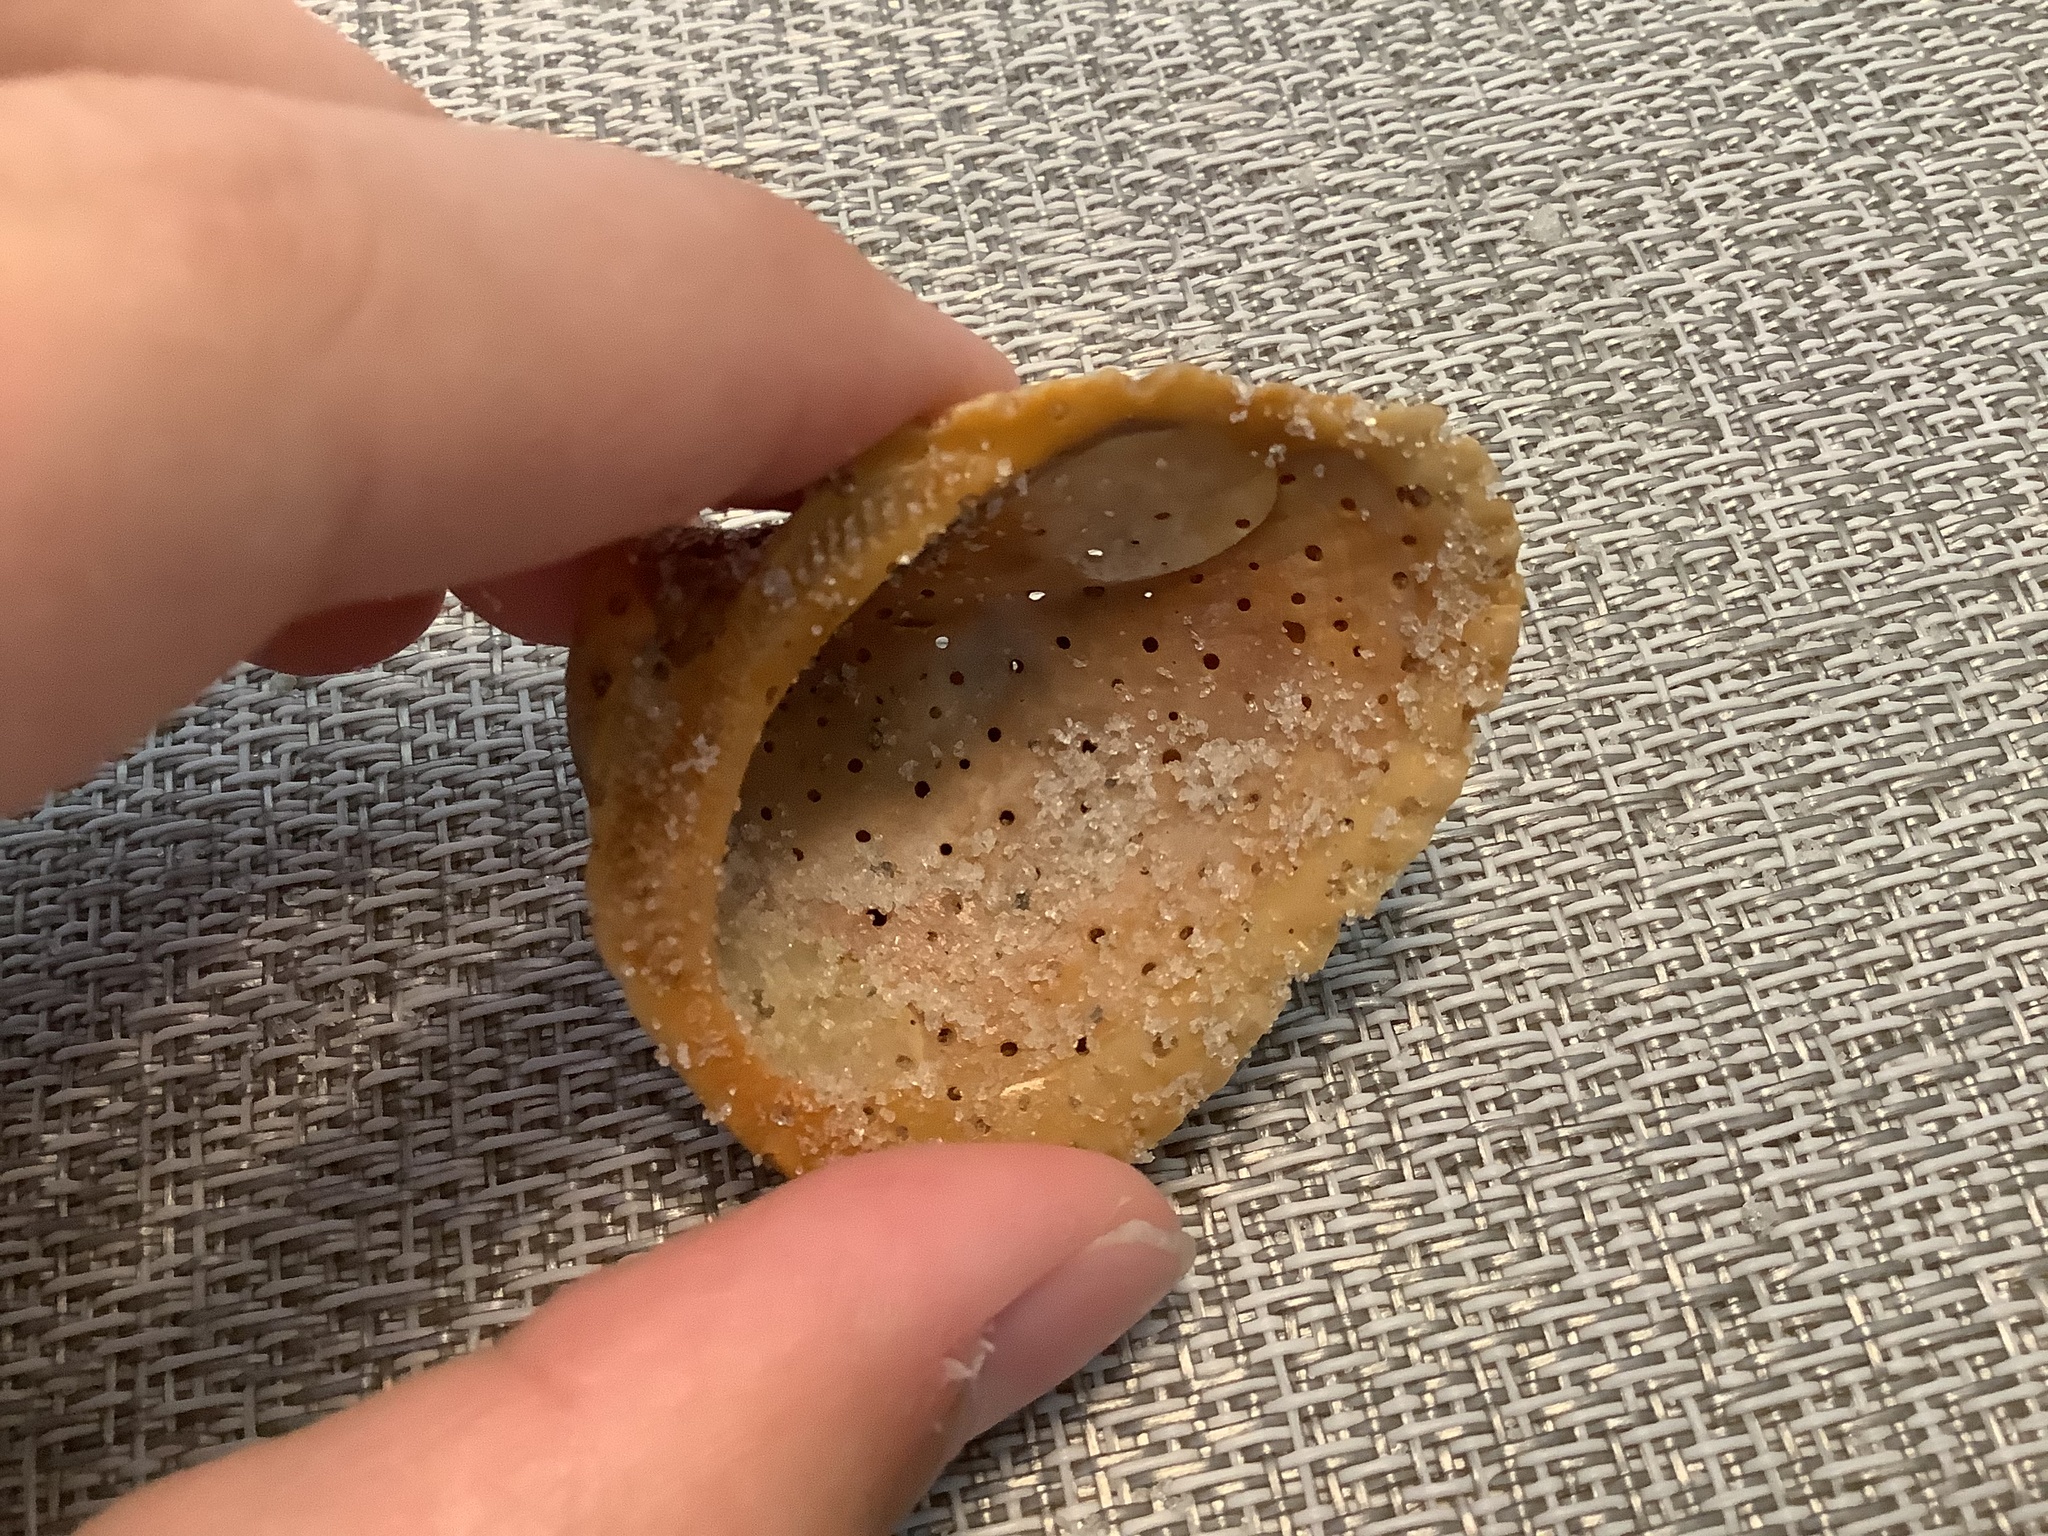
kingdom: Animalia
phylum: Mollusca
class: Bivalvia
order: Arcida
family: Noetiidae
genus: Noetia
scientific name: Noetia ponderosa
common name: Ponderous ark
